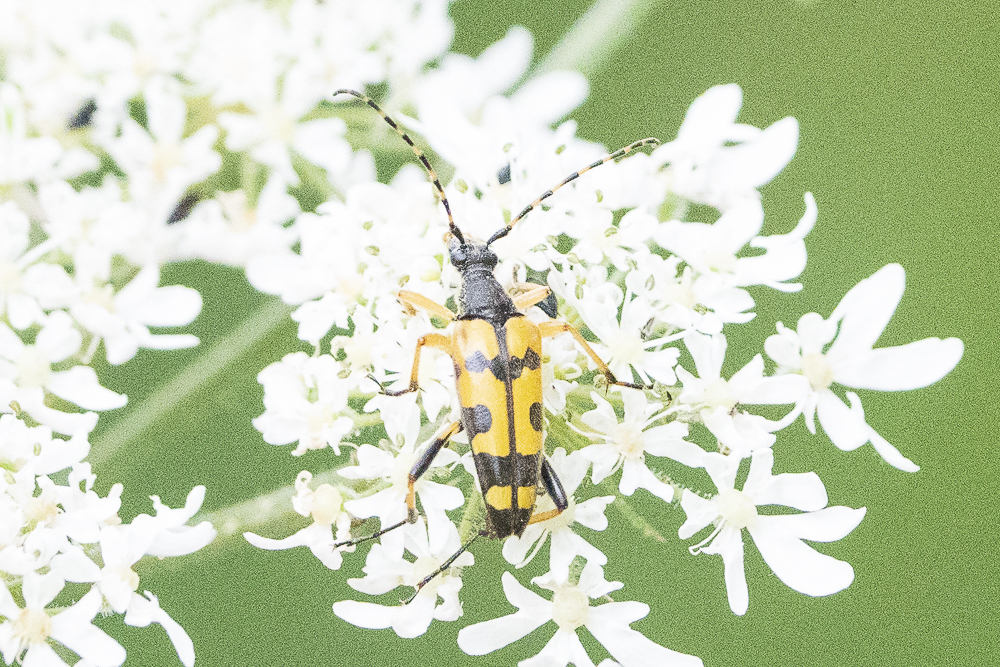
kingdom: Animalia
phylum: Arthropoda
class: Insecta
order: Coleoptera
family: Cerambycidae
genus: Rutpela
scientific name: Rutpela maculata
